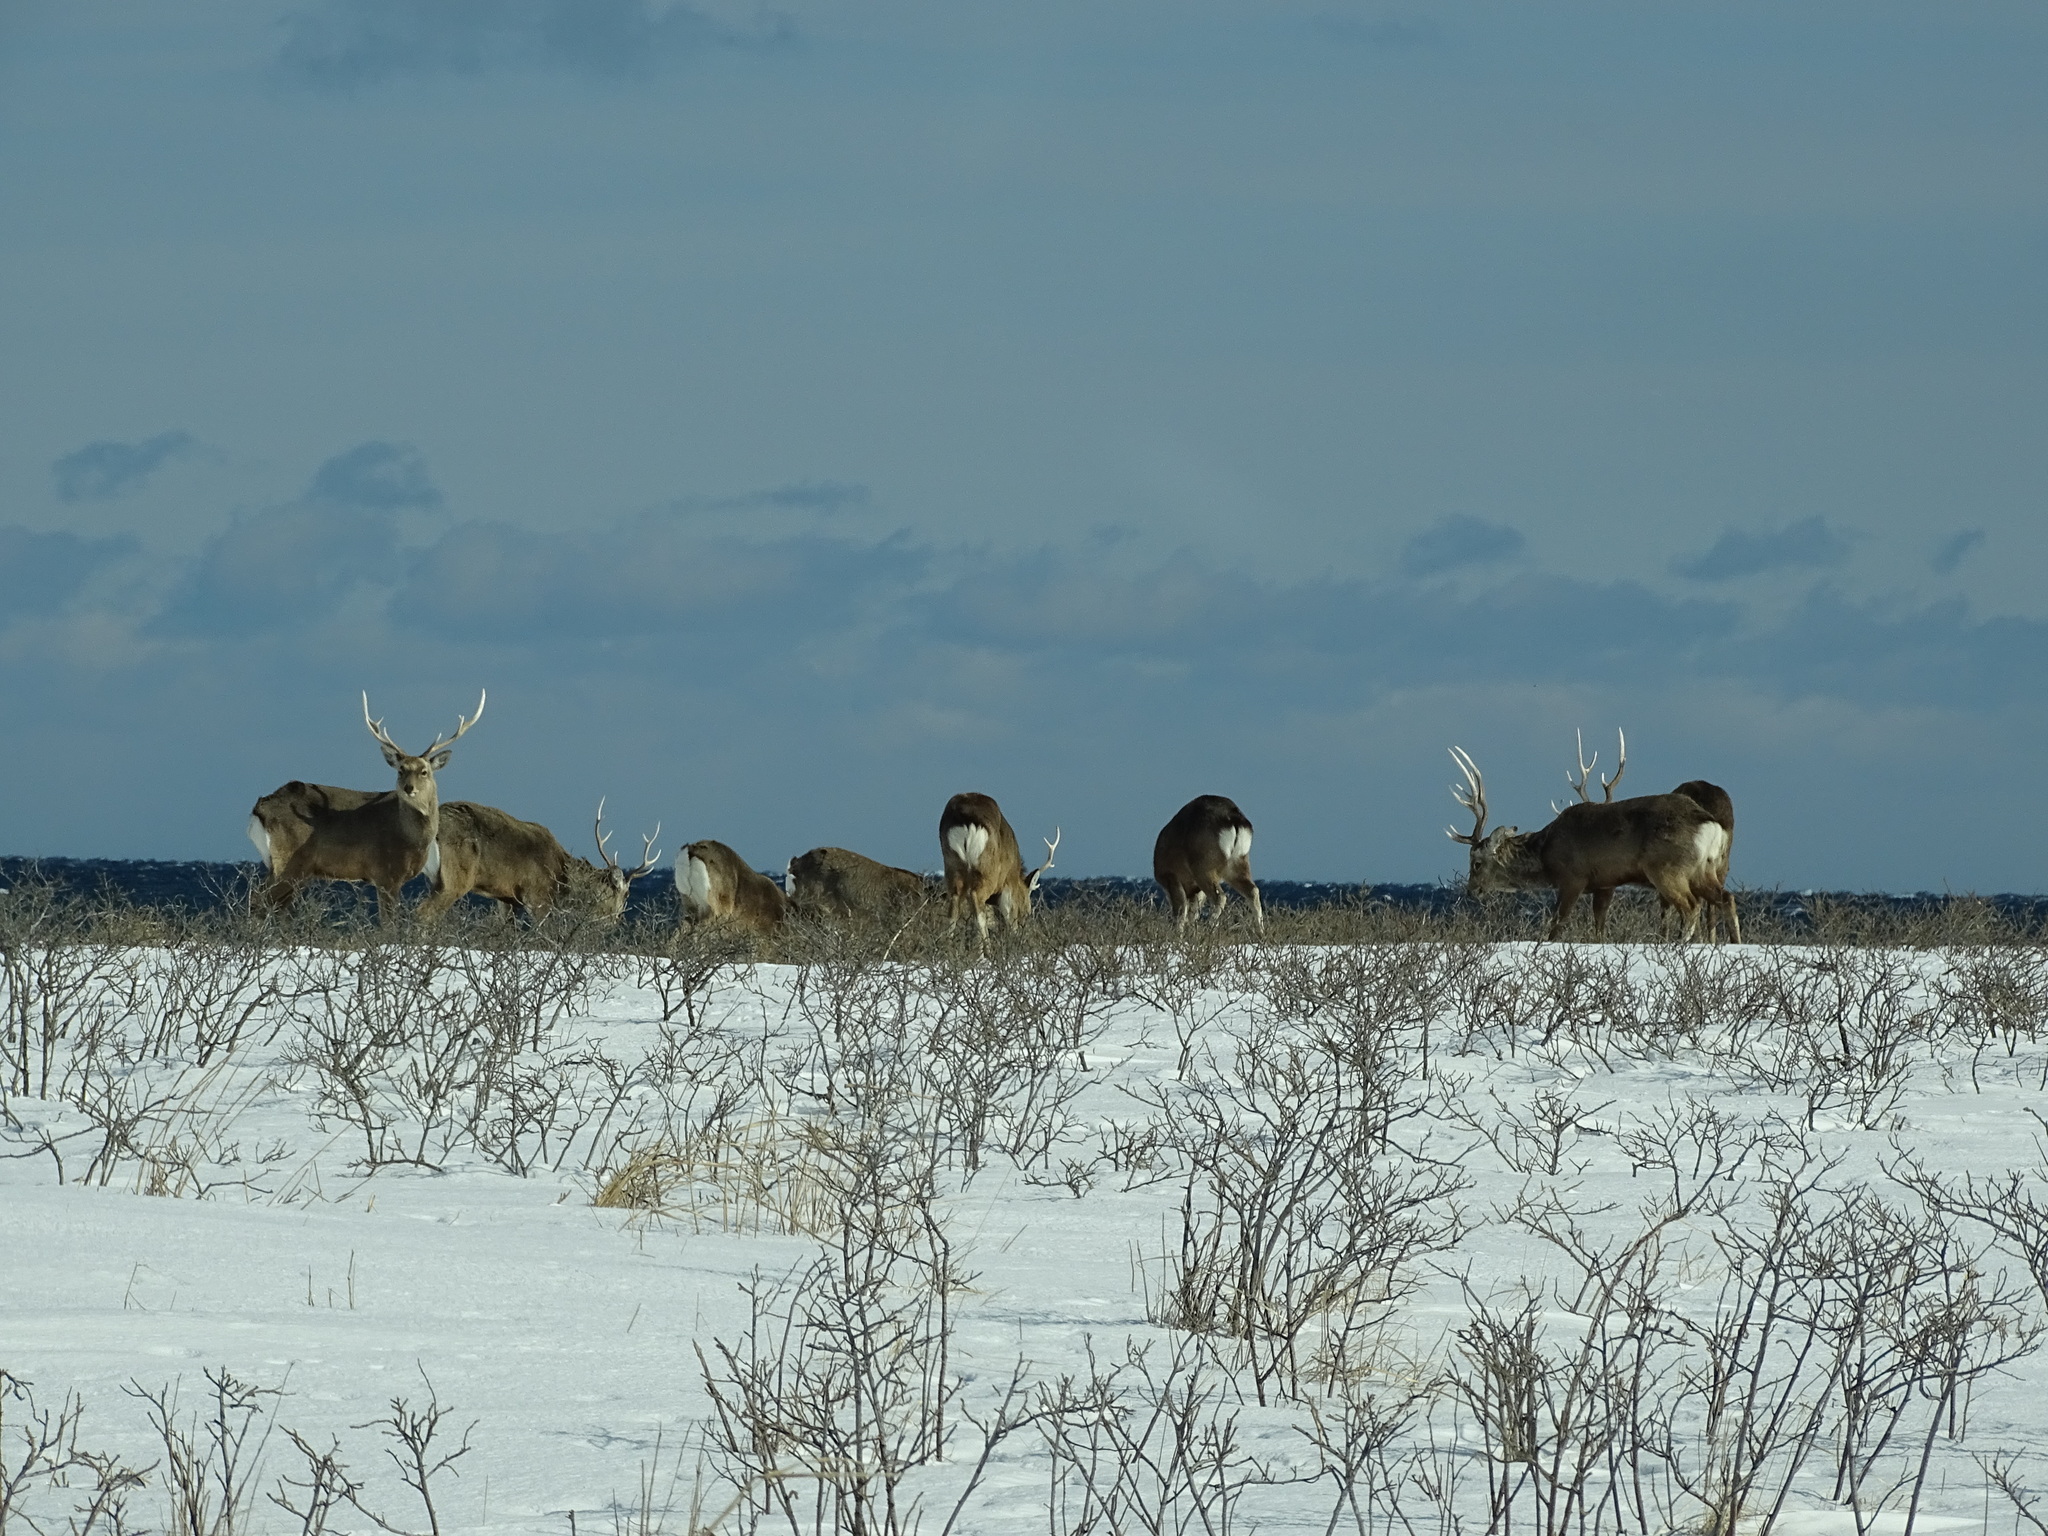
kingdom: Animalia
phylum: Chordata
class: Mammalia
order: Artiodactyla
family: Cervidae
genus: Cervus
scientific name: Cervus nippon
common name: Sika deer
